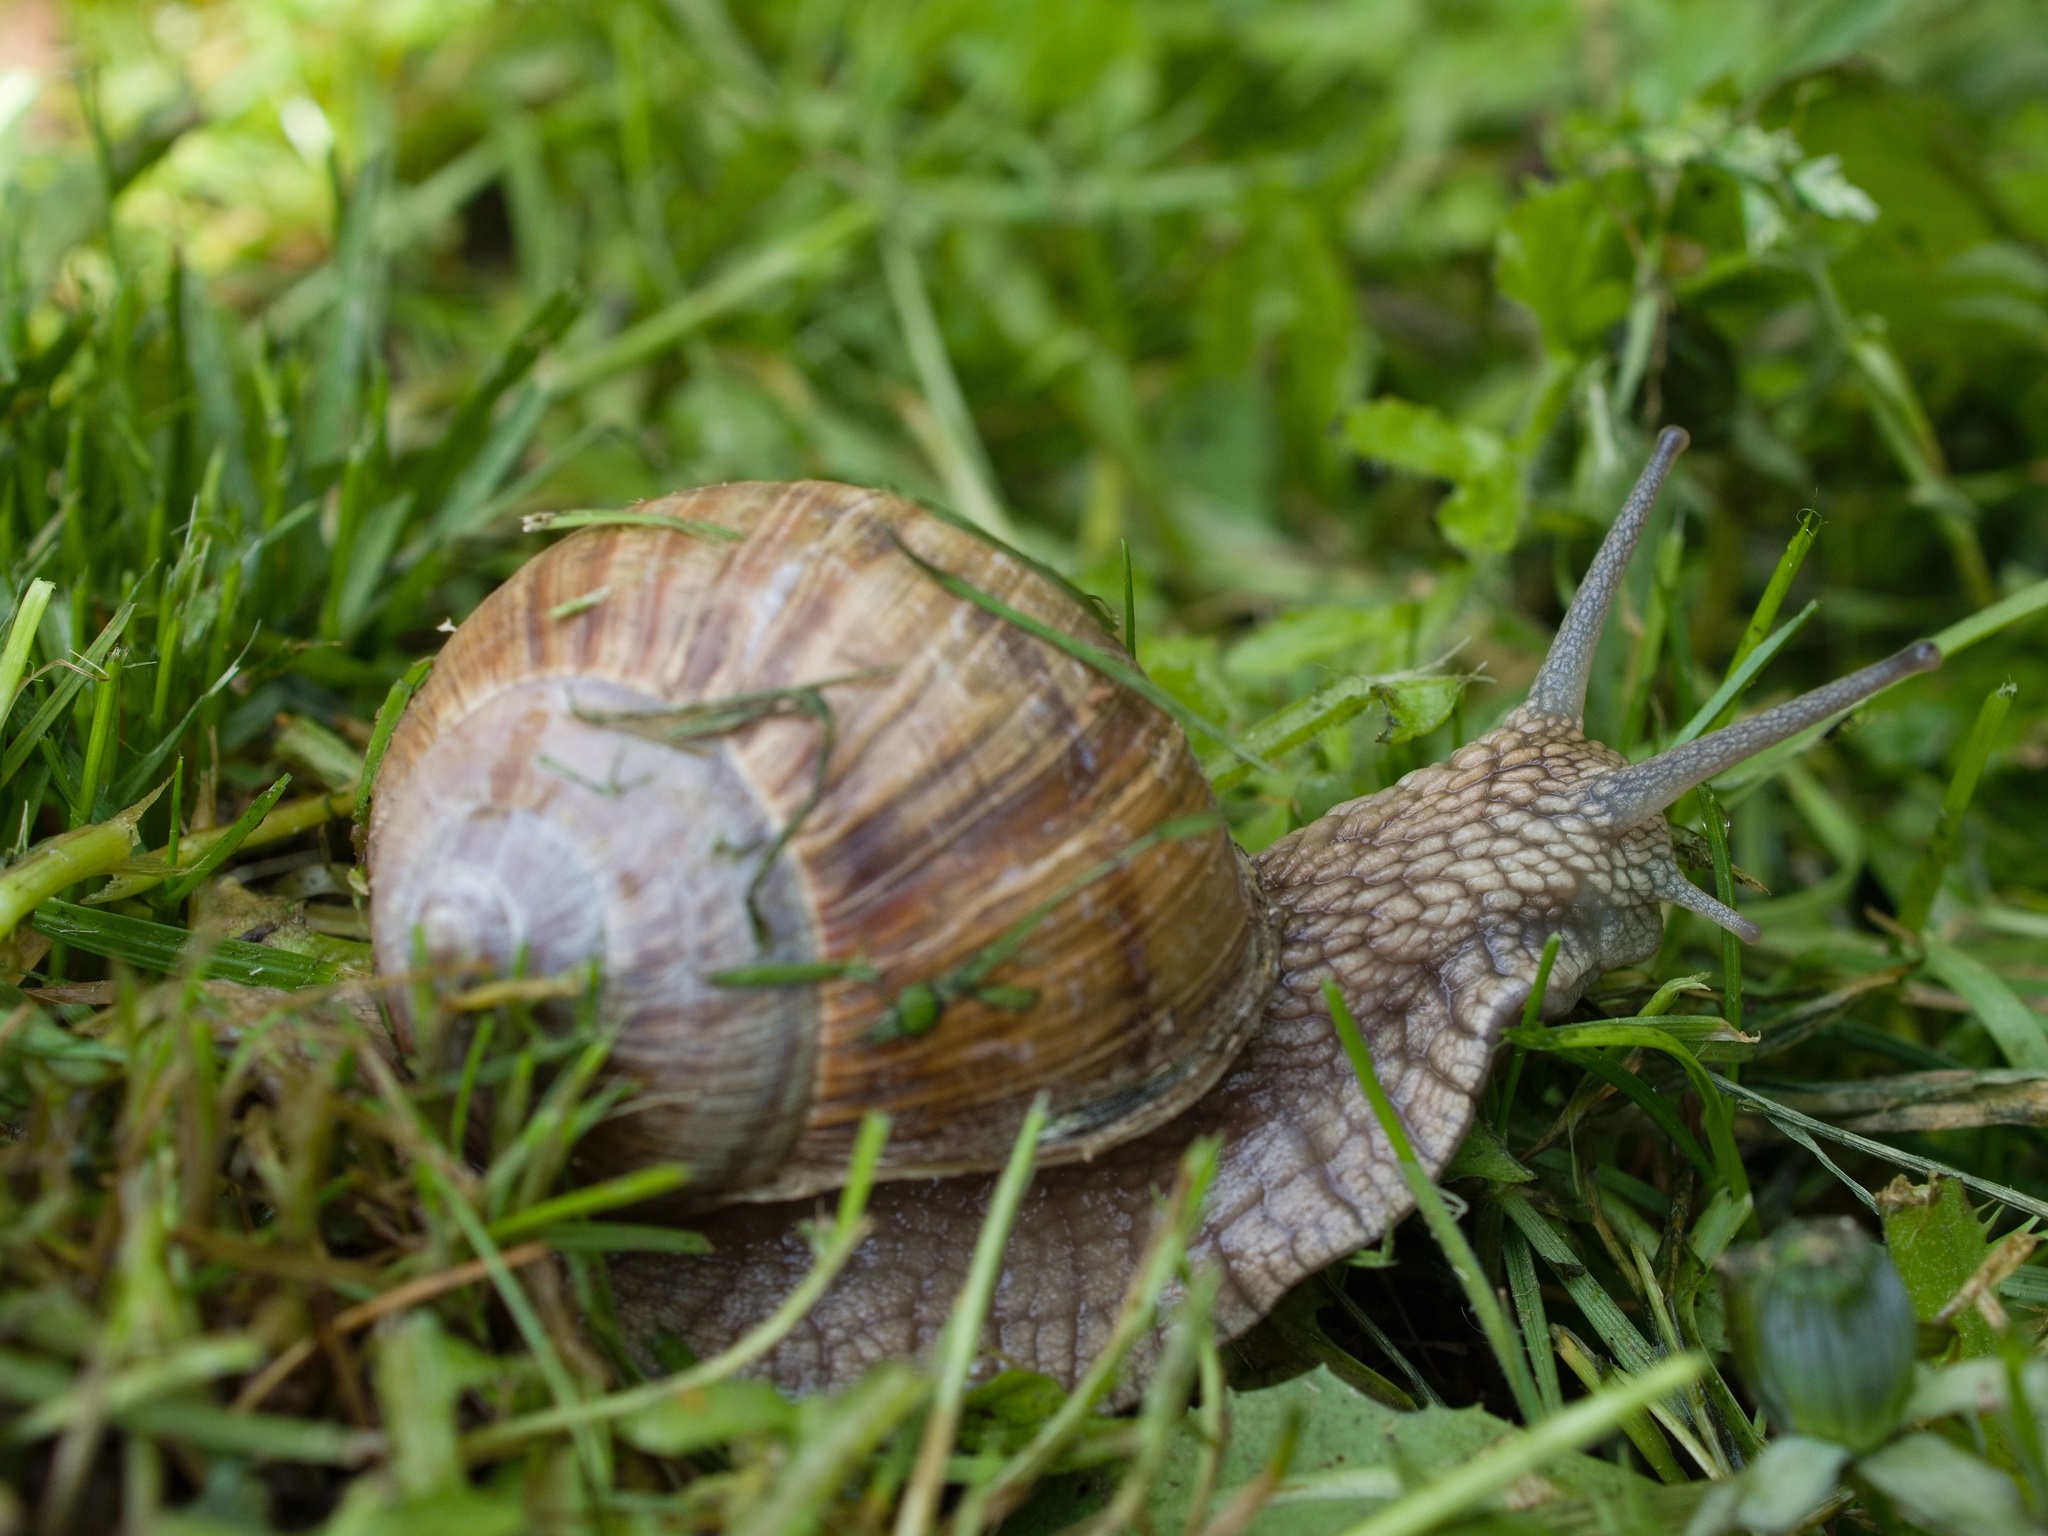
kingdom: Animalia
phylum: Mollusca
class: Gastropoda
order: Stylommatophora
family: Helicidae
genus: Helix
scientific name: Helix pomatia
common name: Roman snail
